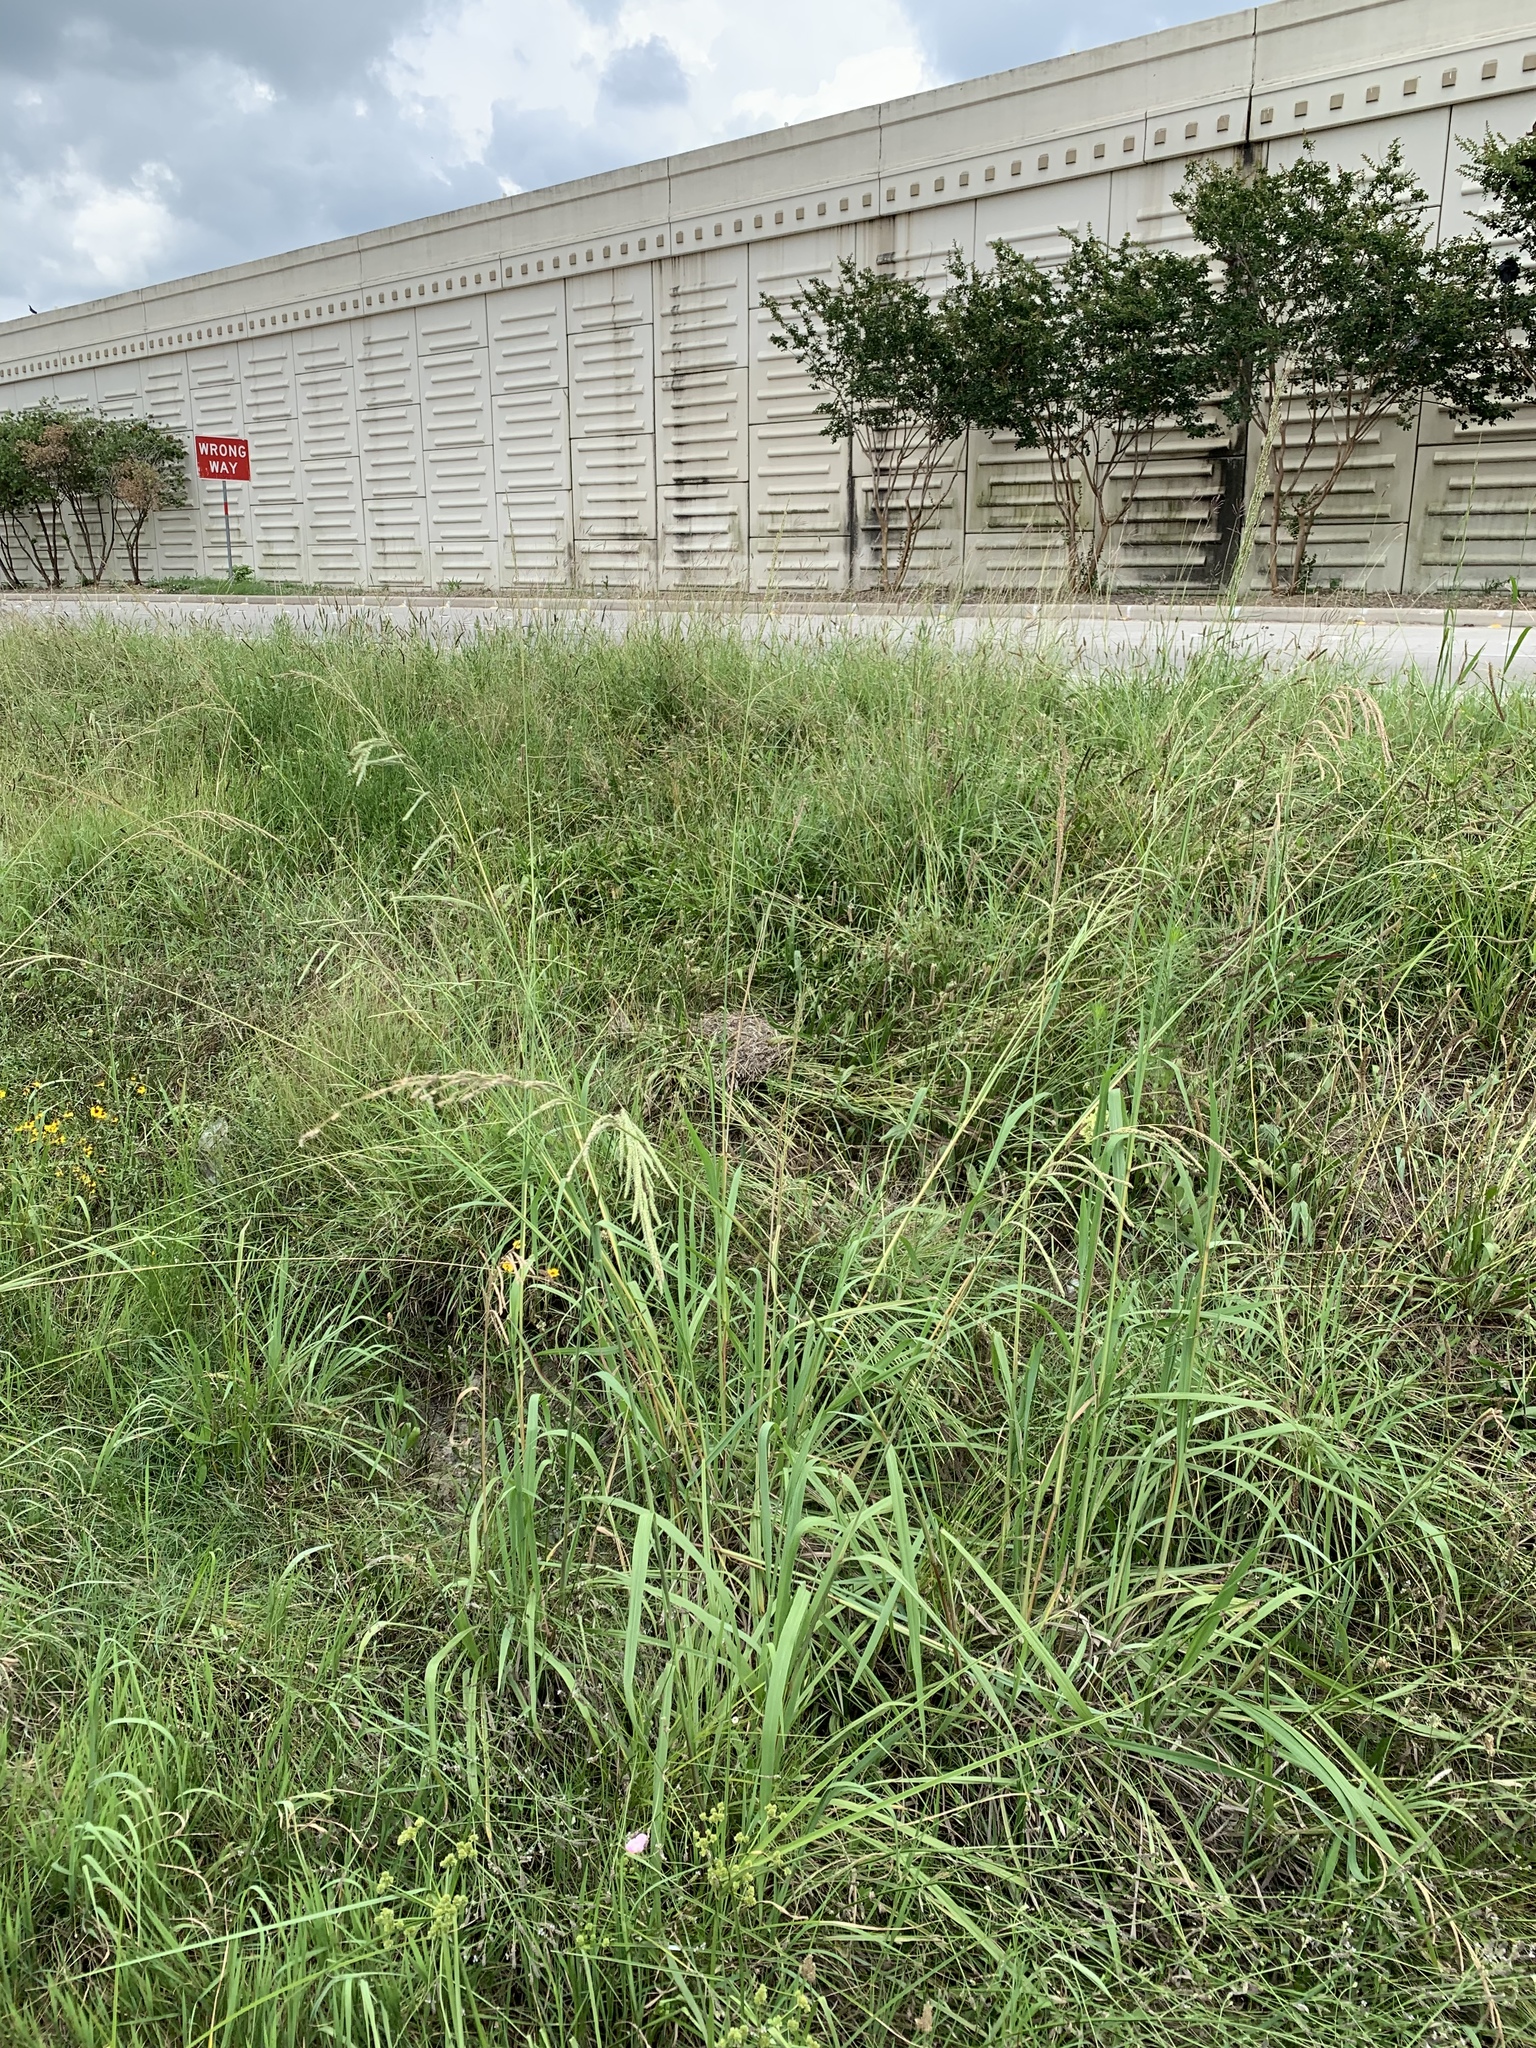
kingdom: Plantae
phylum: Tracheophyta
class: Liliopsida
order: Poales
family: Poaceae
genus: Paspalum
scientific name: Paspalum urvillei
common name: Vasey's grass
